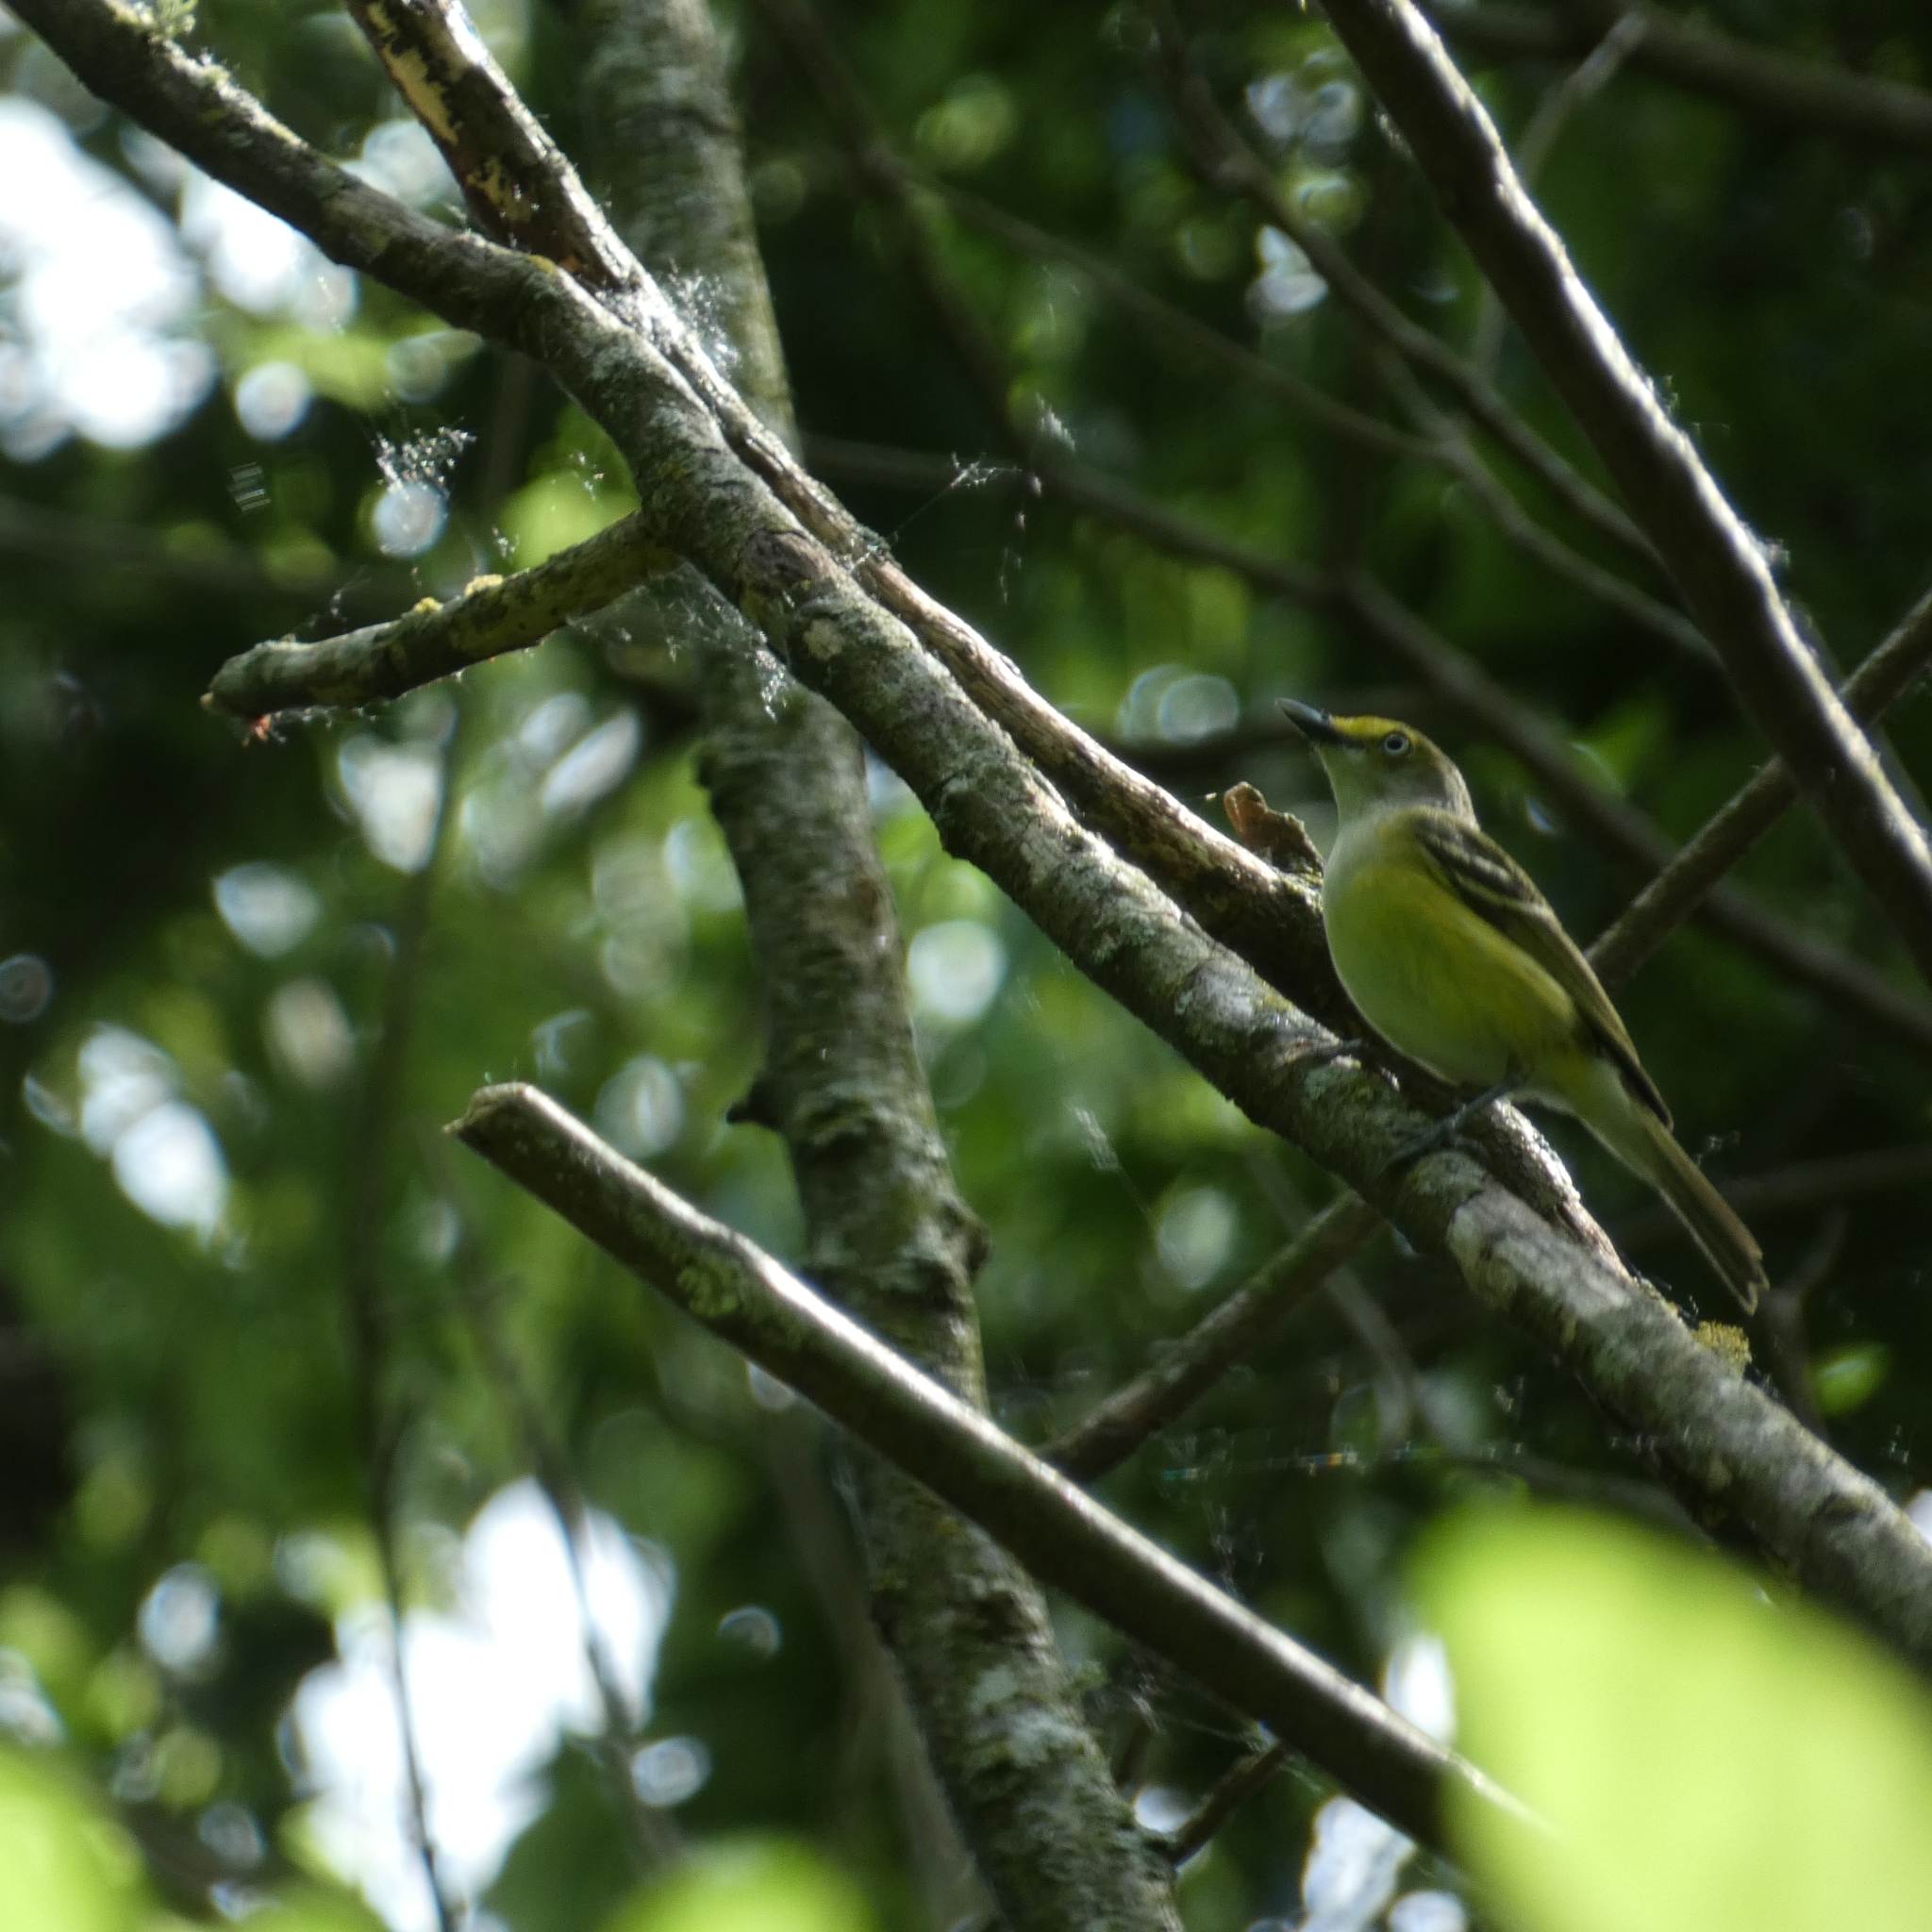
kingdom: Animalia
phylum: Chordata
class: Aves
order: Passeriformes
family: Vireonidae
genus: Vireo
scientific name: Vireo griseus
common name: White-eyed vireo
